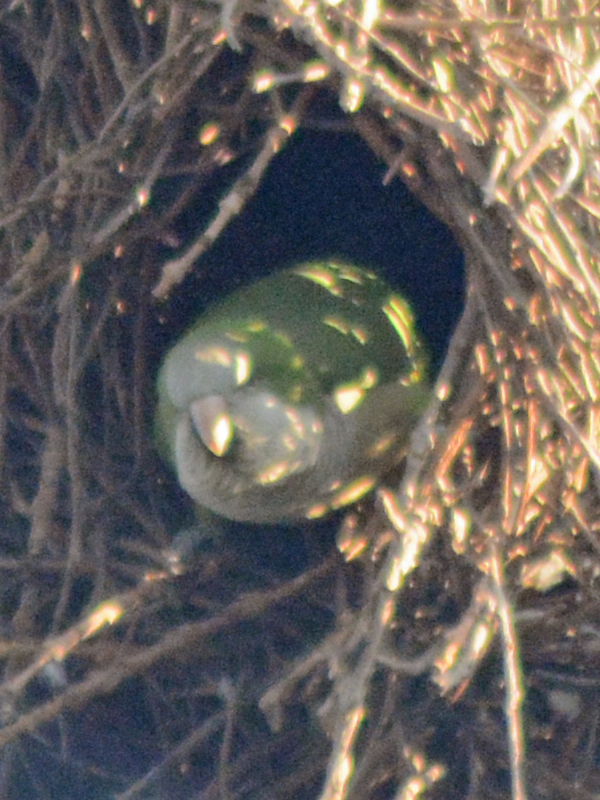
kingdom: Animalia
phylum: Chordata
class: Aves
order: Psittaciformes
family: Psittacidae
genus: Myiopsitta
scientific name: Myiopsitta monachus
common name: Monk parakeet
